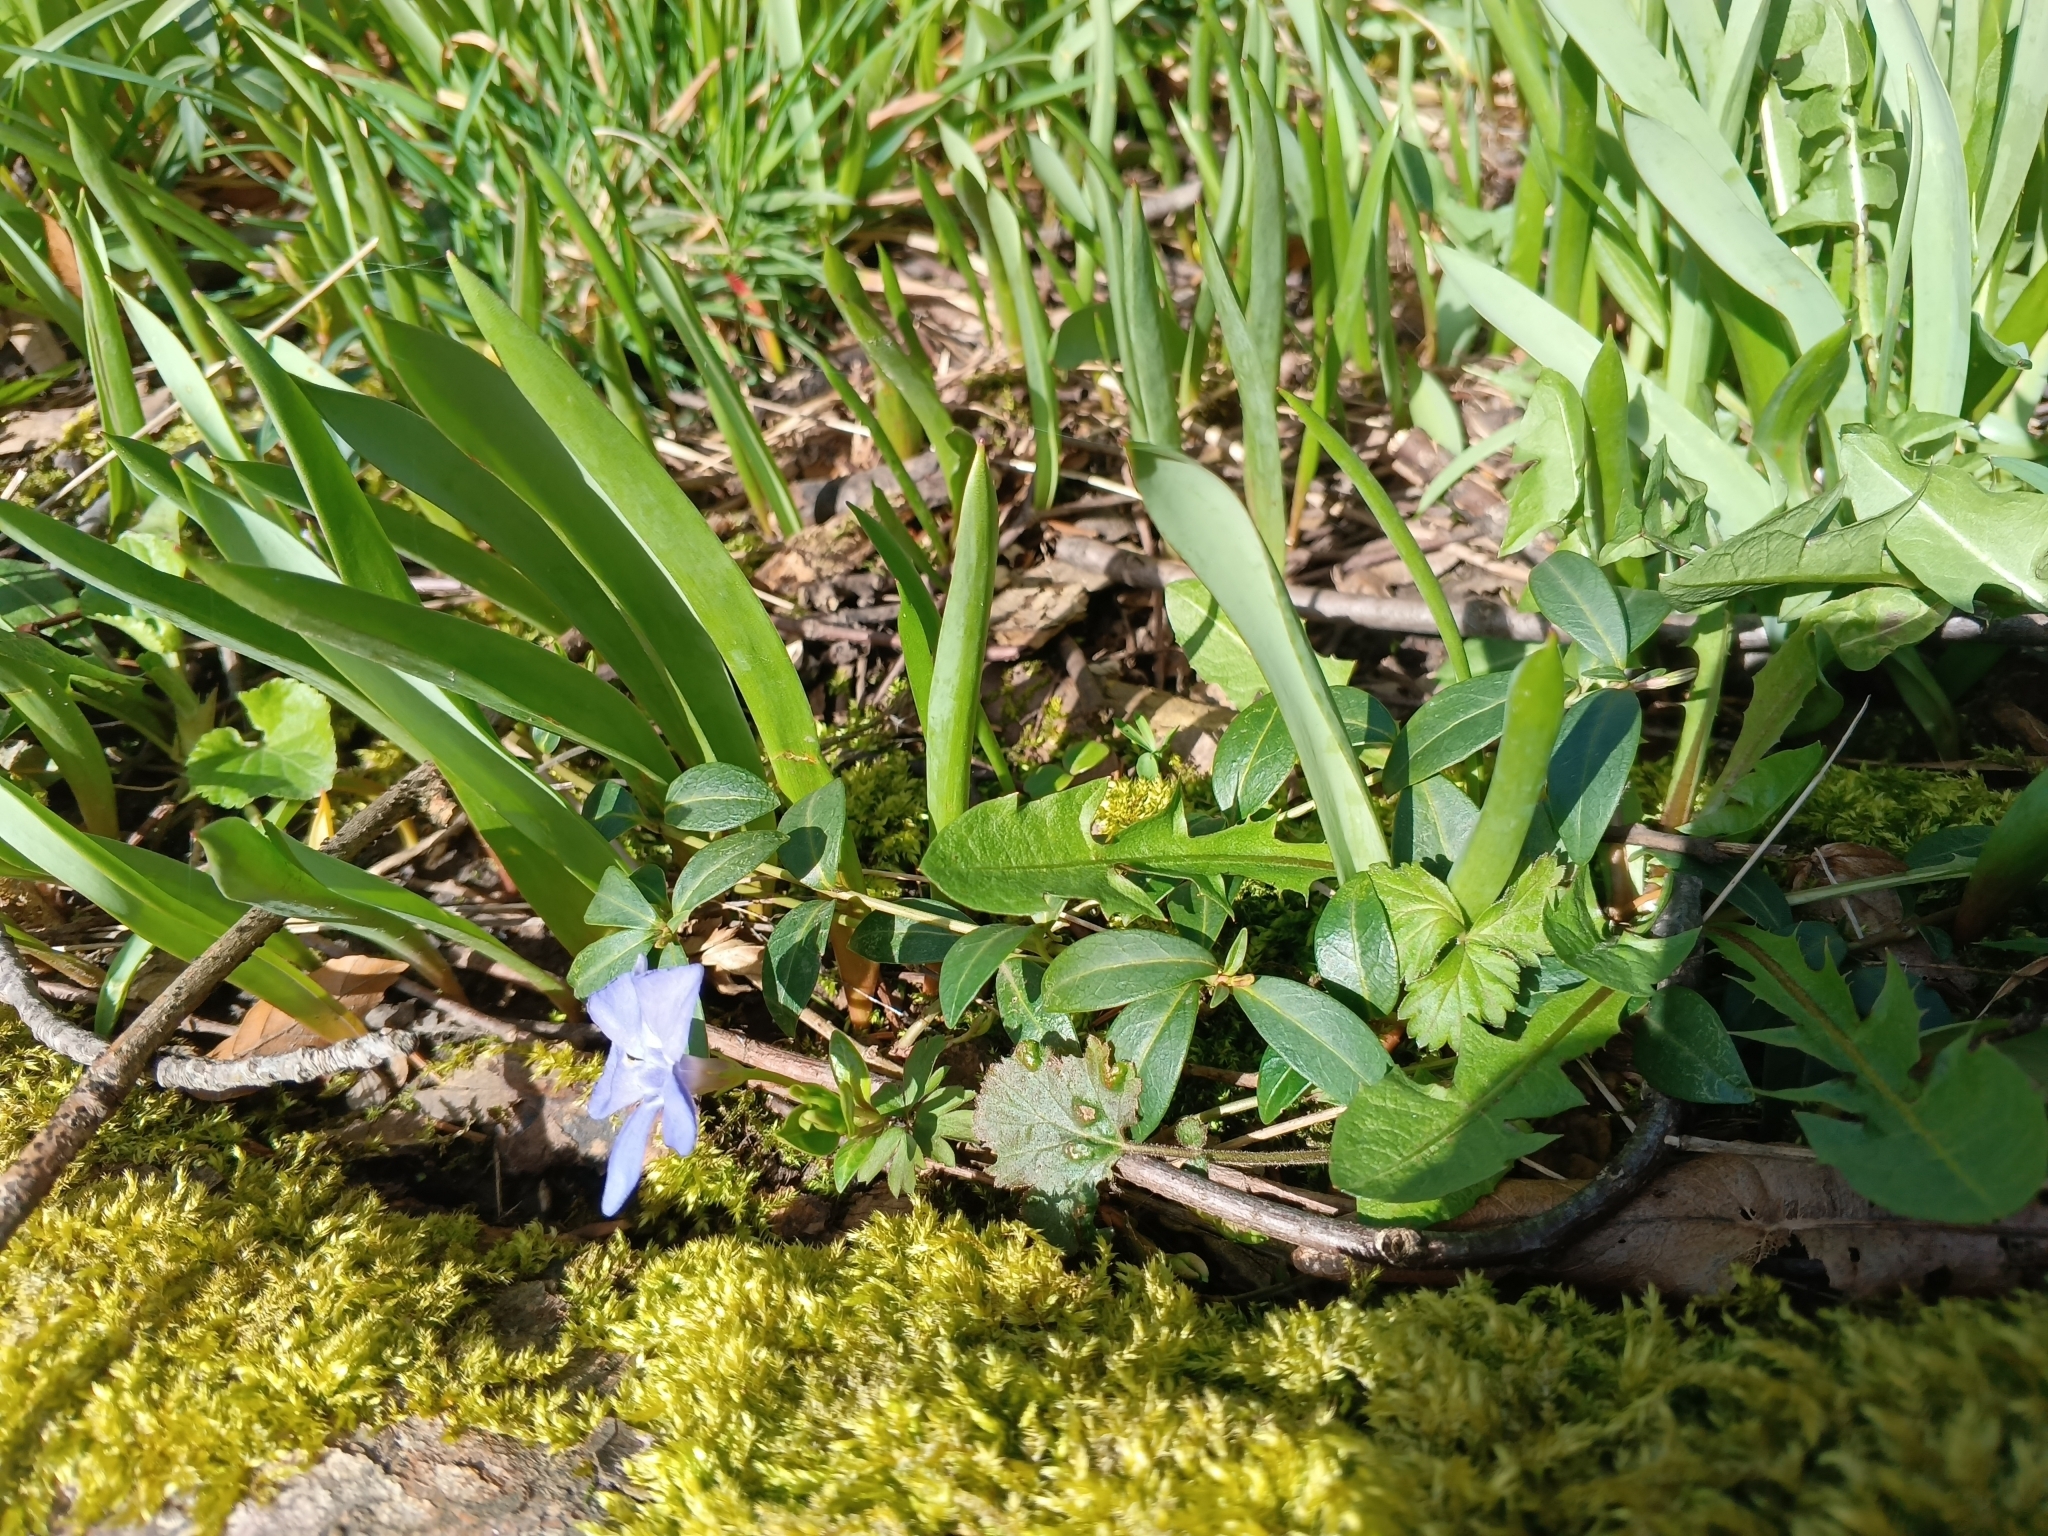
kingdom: Plantae
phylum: Tracheophyta
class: Magnoliopsida
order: Gentianales
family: Apocynaceae
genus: Vinca
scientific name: Vinca minor
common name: Lesser periwinkle
